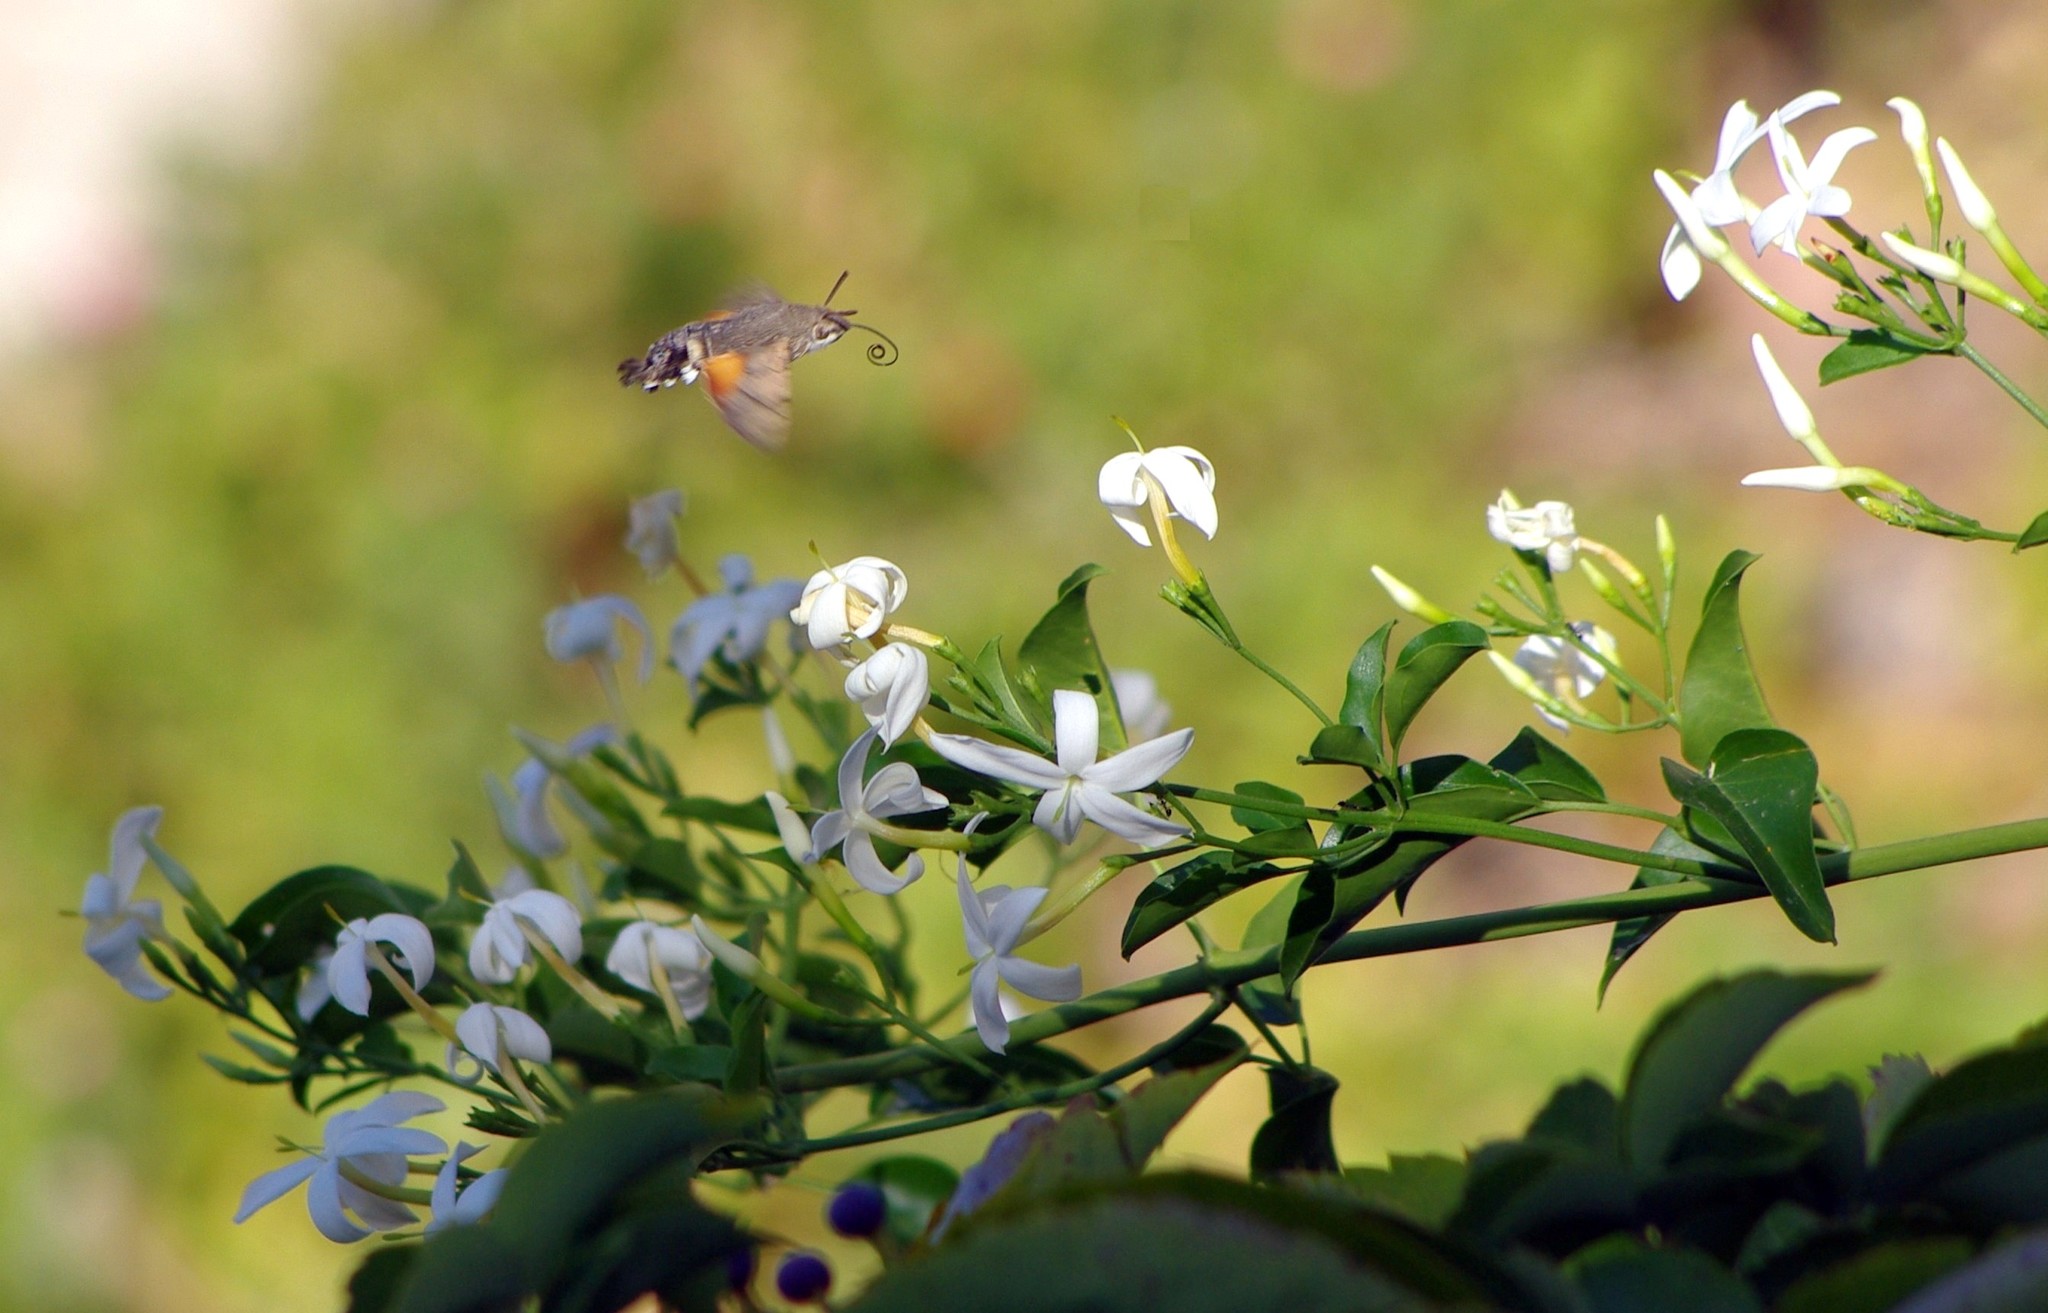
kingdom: Animalia
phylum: Arthropoda
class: Insecta
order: Lepidoptera
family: Sphingidae
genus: Macroglossum
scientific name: Macroglossum stellatarum
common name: Humming-bird hawk-moth
